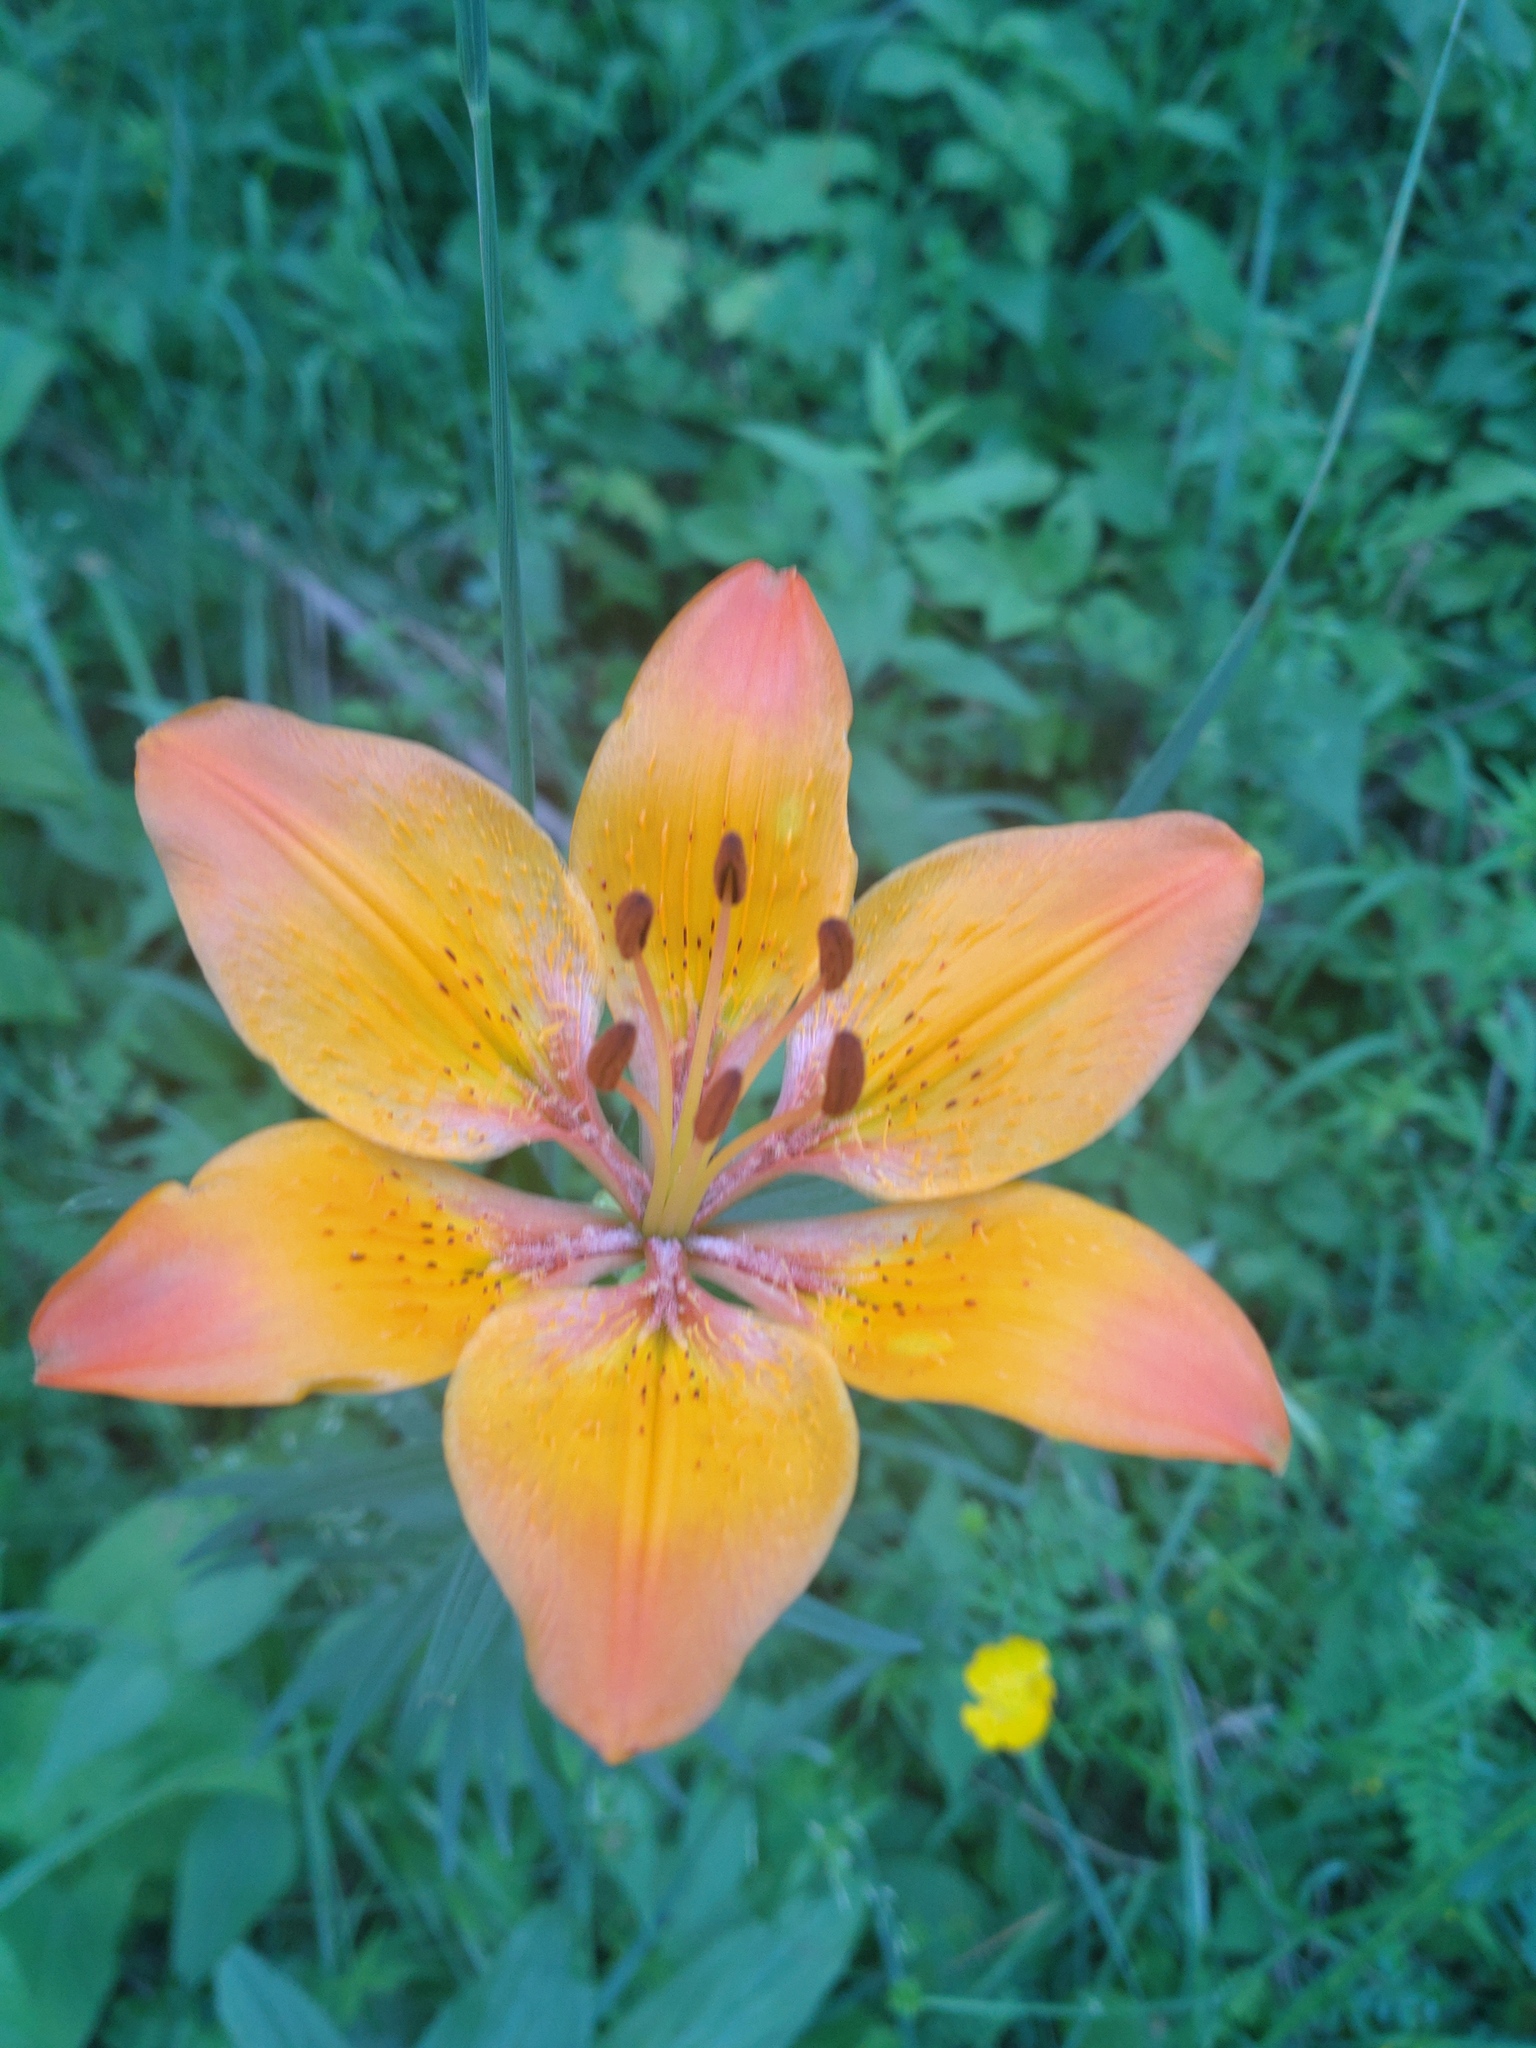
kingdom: Plantae
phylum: Tracheophyta
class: Liliopsida
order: Liliales
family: Liliaceae
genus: Lilium
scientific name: Lilium bulbiferum
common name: Orange lily
